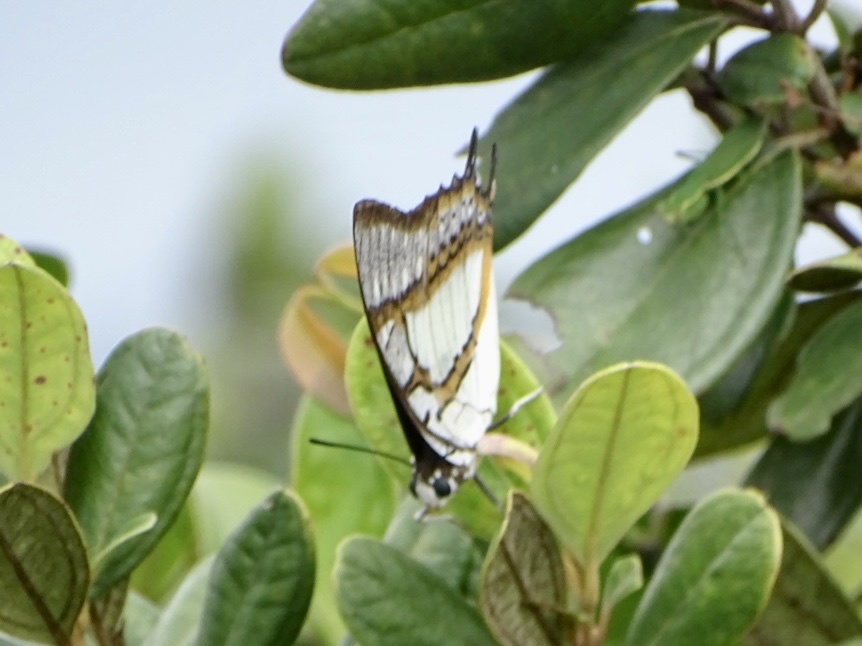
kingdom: Animalia
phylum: Arthropoda
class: Insecta
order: Lepidoptera
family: Nymphalidae
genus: Polyura
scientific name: Polyura eudamippus
